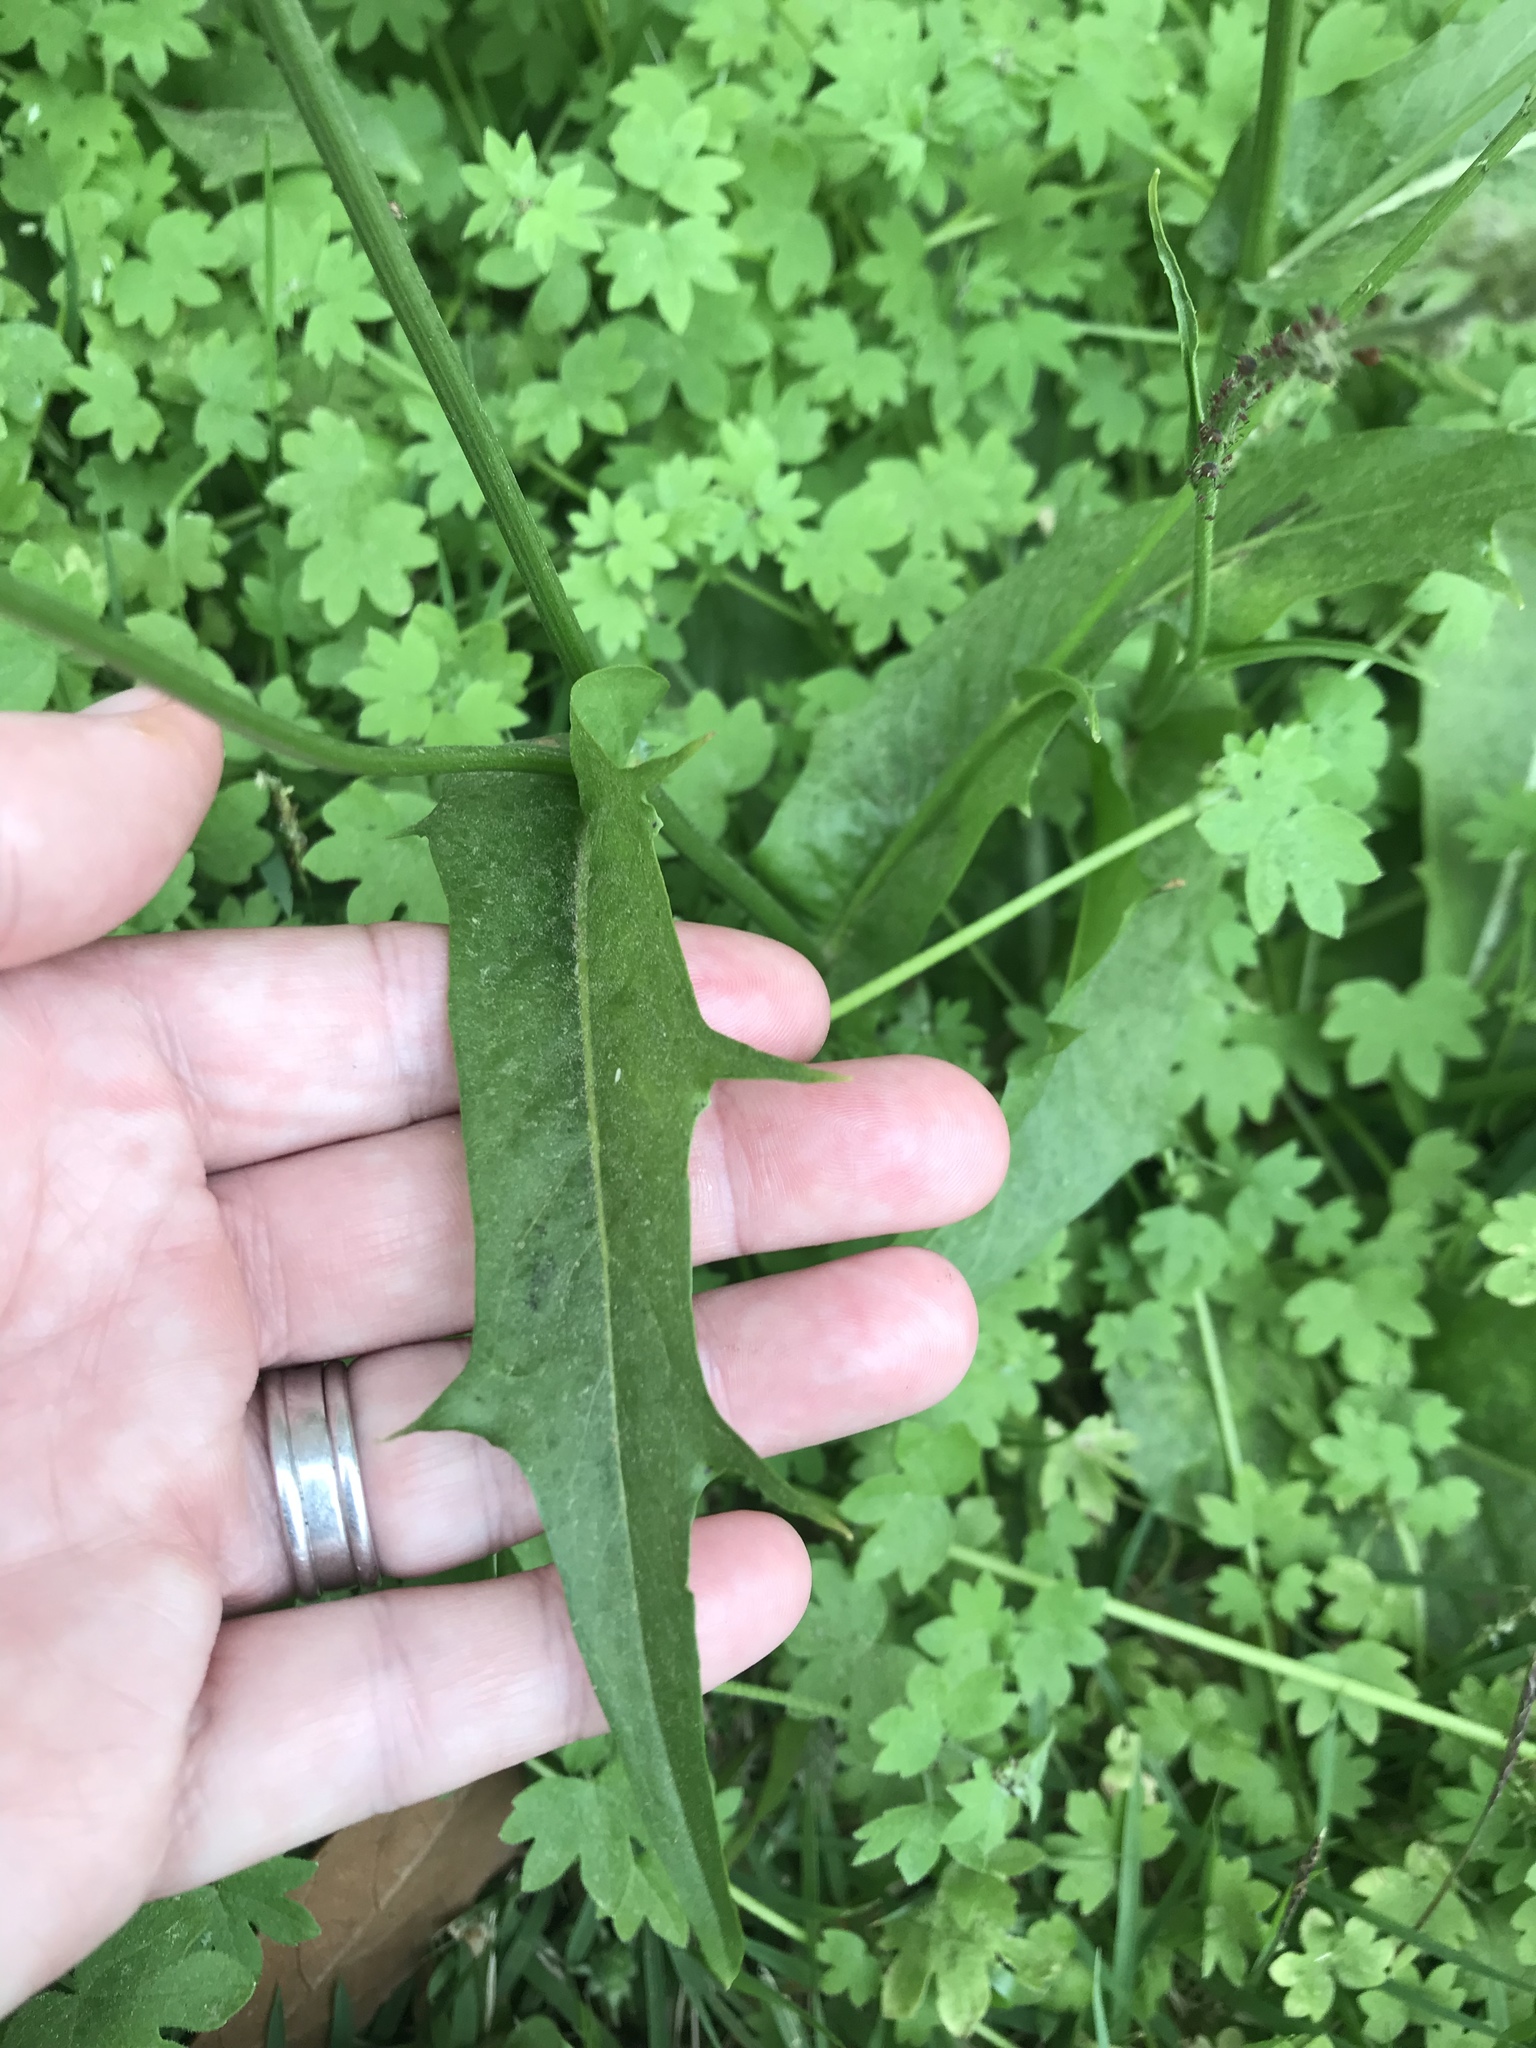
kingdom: Plantae
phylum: Tracheophyta
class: Magnoliopsida
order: Asterales
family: Asteraceae
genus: Hypochaeris
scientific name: Hypochaeris chillensis
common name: Brazilian cat's ear
